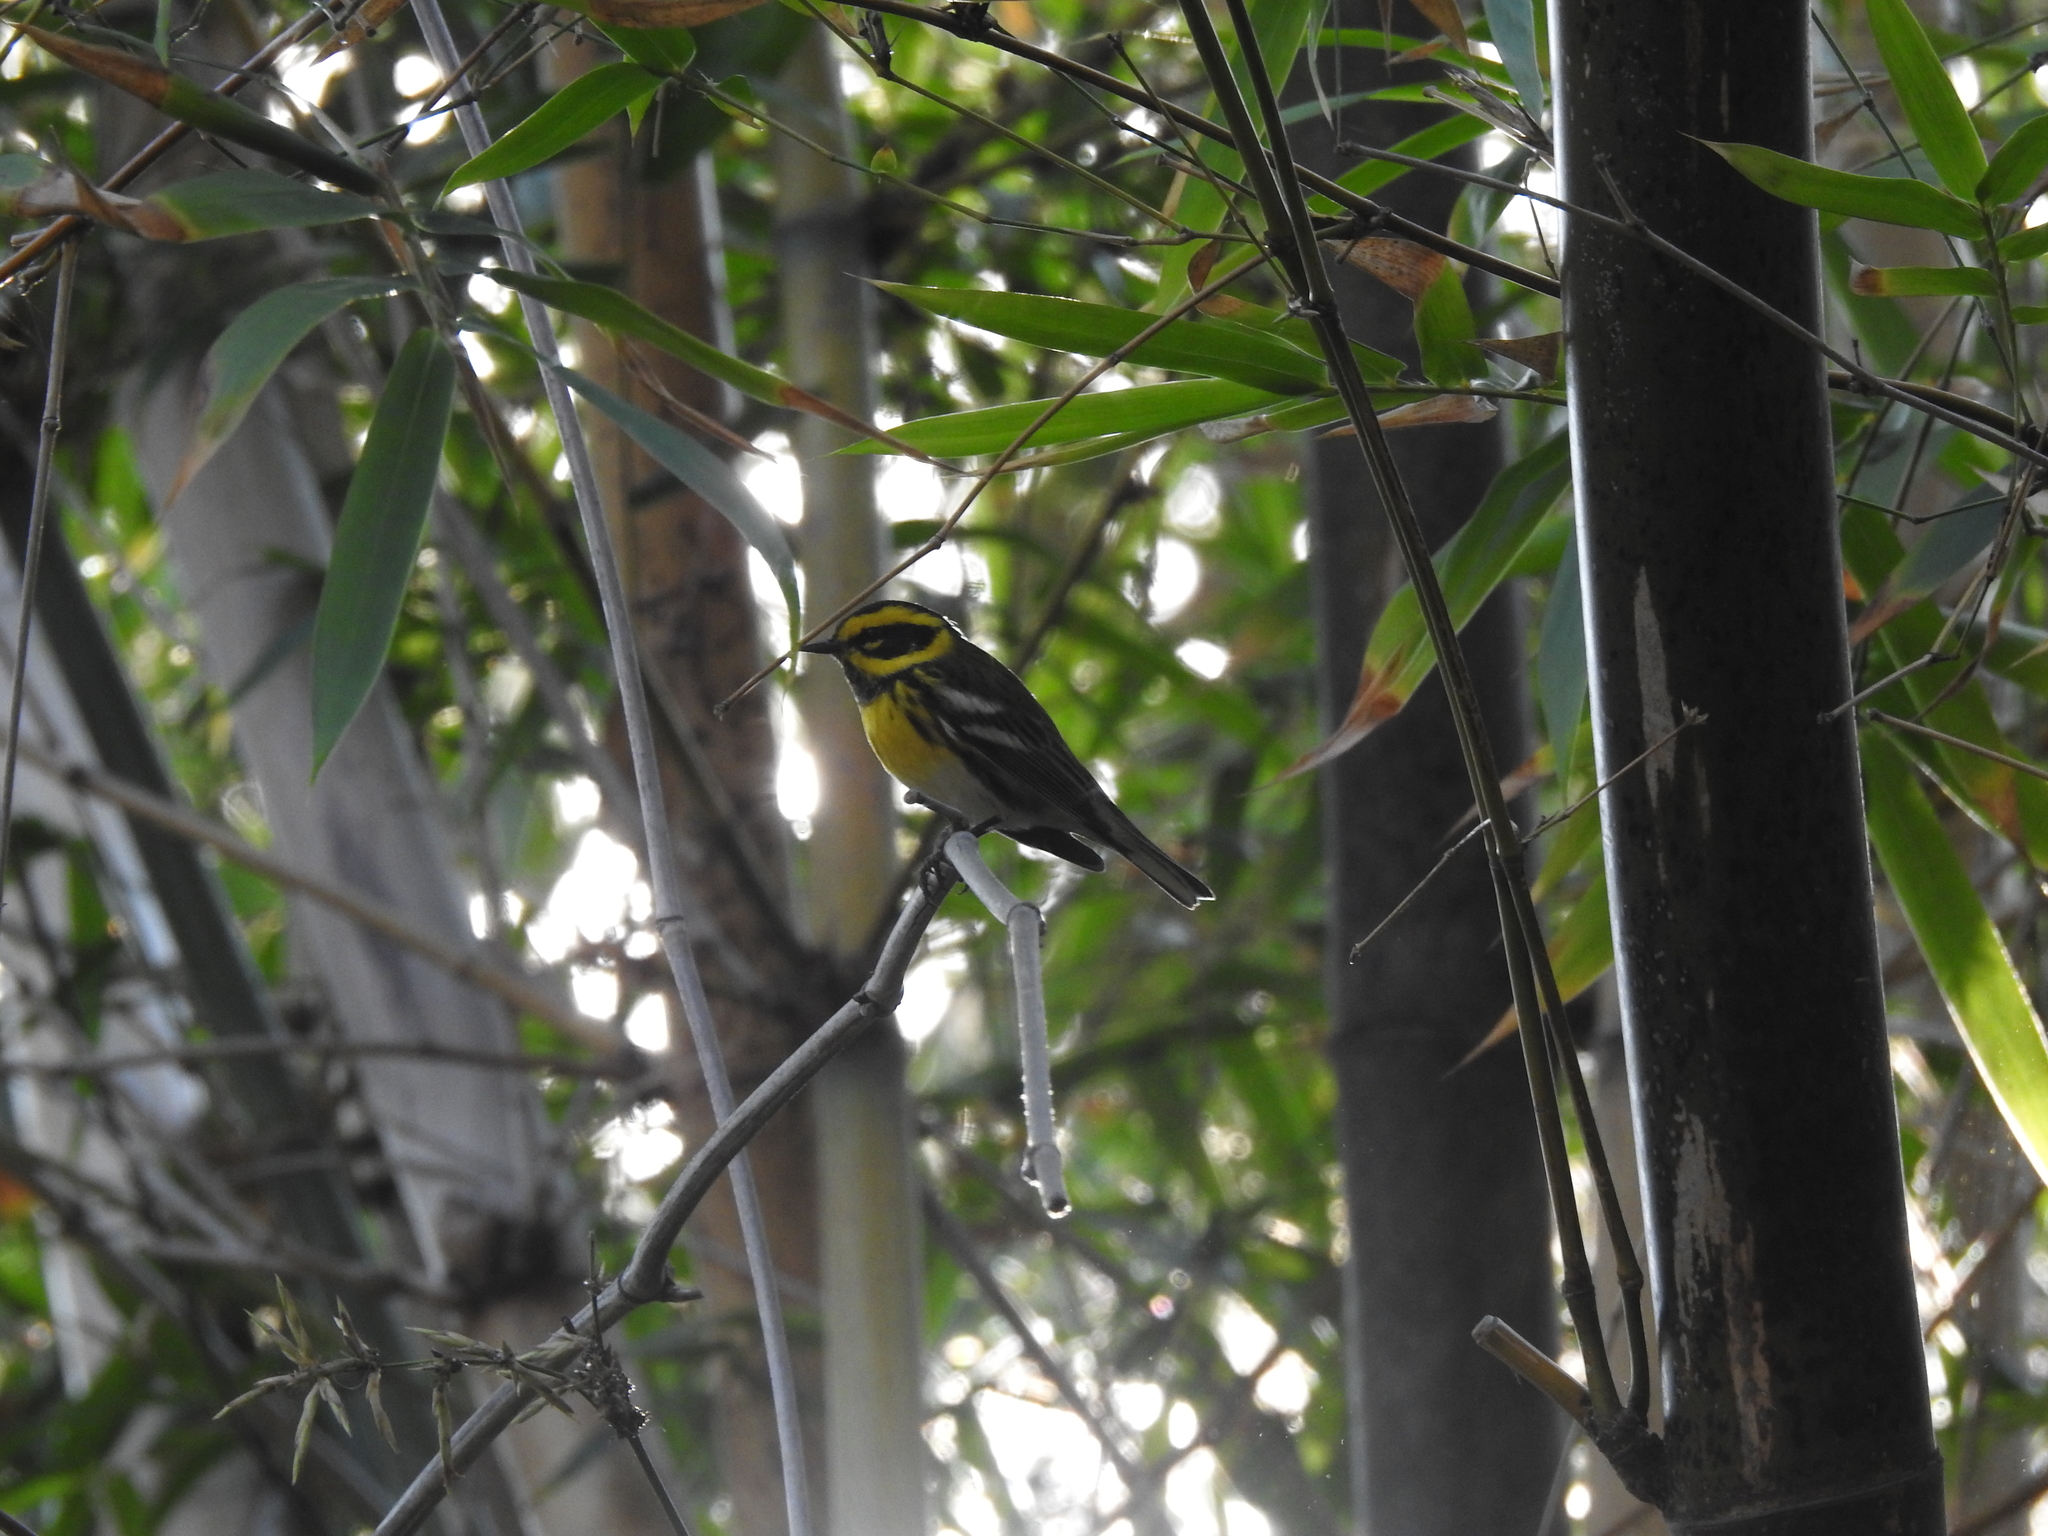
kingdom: Animalia
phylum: Chordata
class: Aves
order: Passeriformes
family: Parulidae
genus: Setophaga
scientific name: Setophaga townsendi
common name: Townsend's warbler
